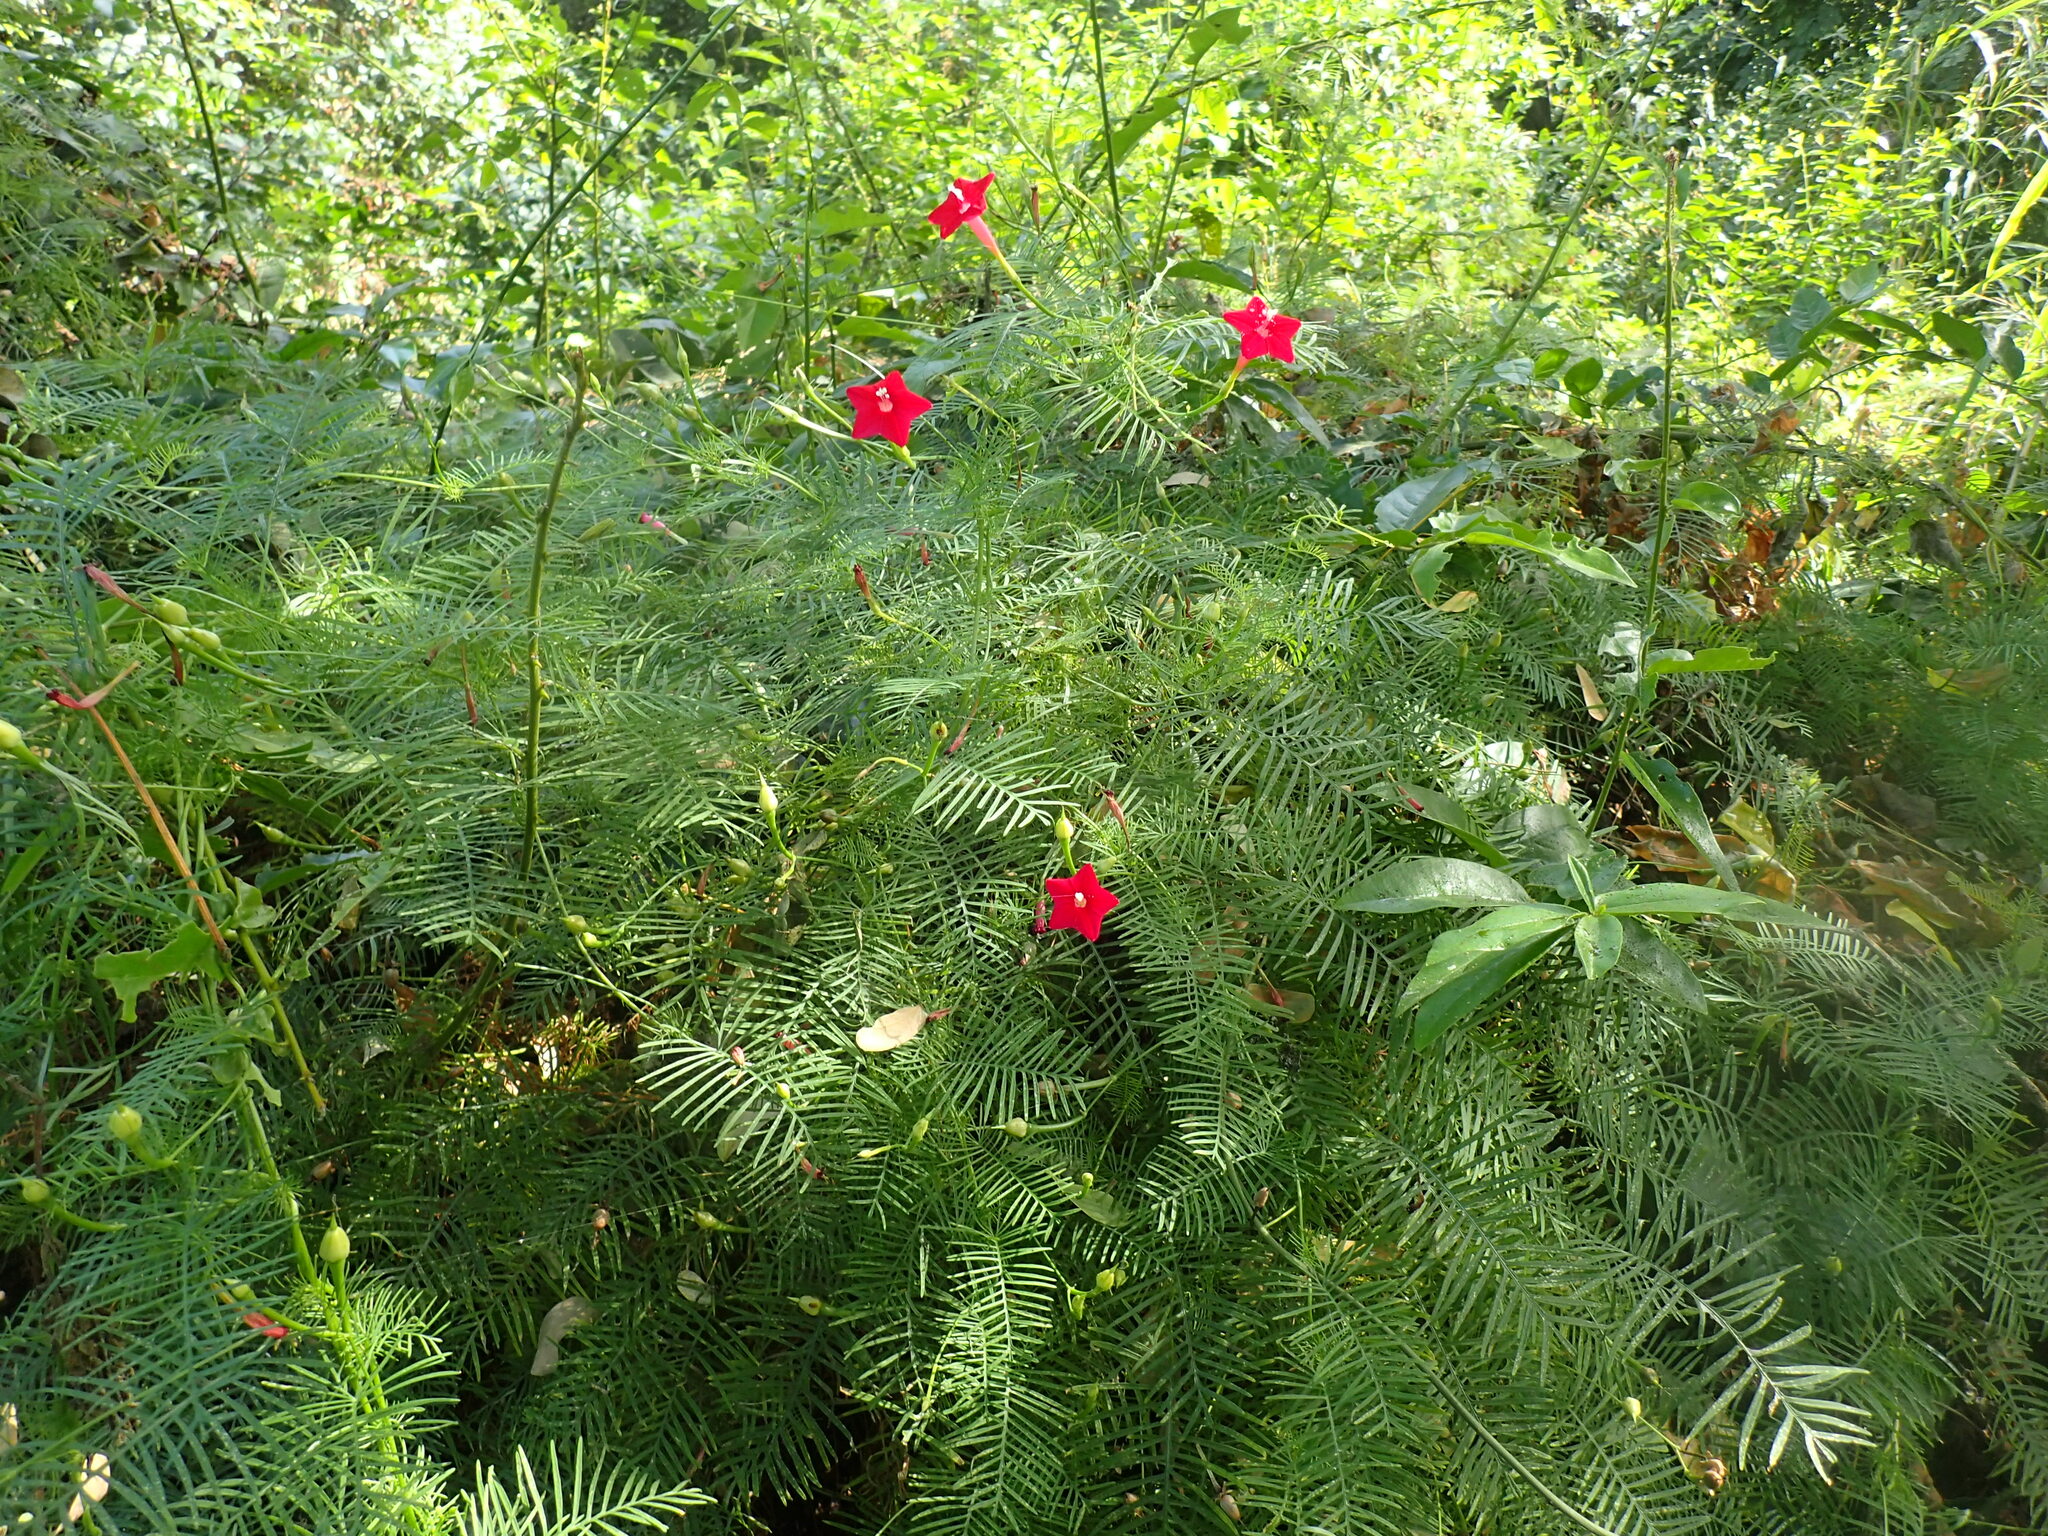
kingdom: Plantae
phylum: Tracheophyta
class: Magnoliopsida
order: Solanales
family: Convolvulaceae
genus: Ipomoea
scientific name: Ipomoea quamoclit
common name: Cypress vine
